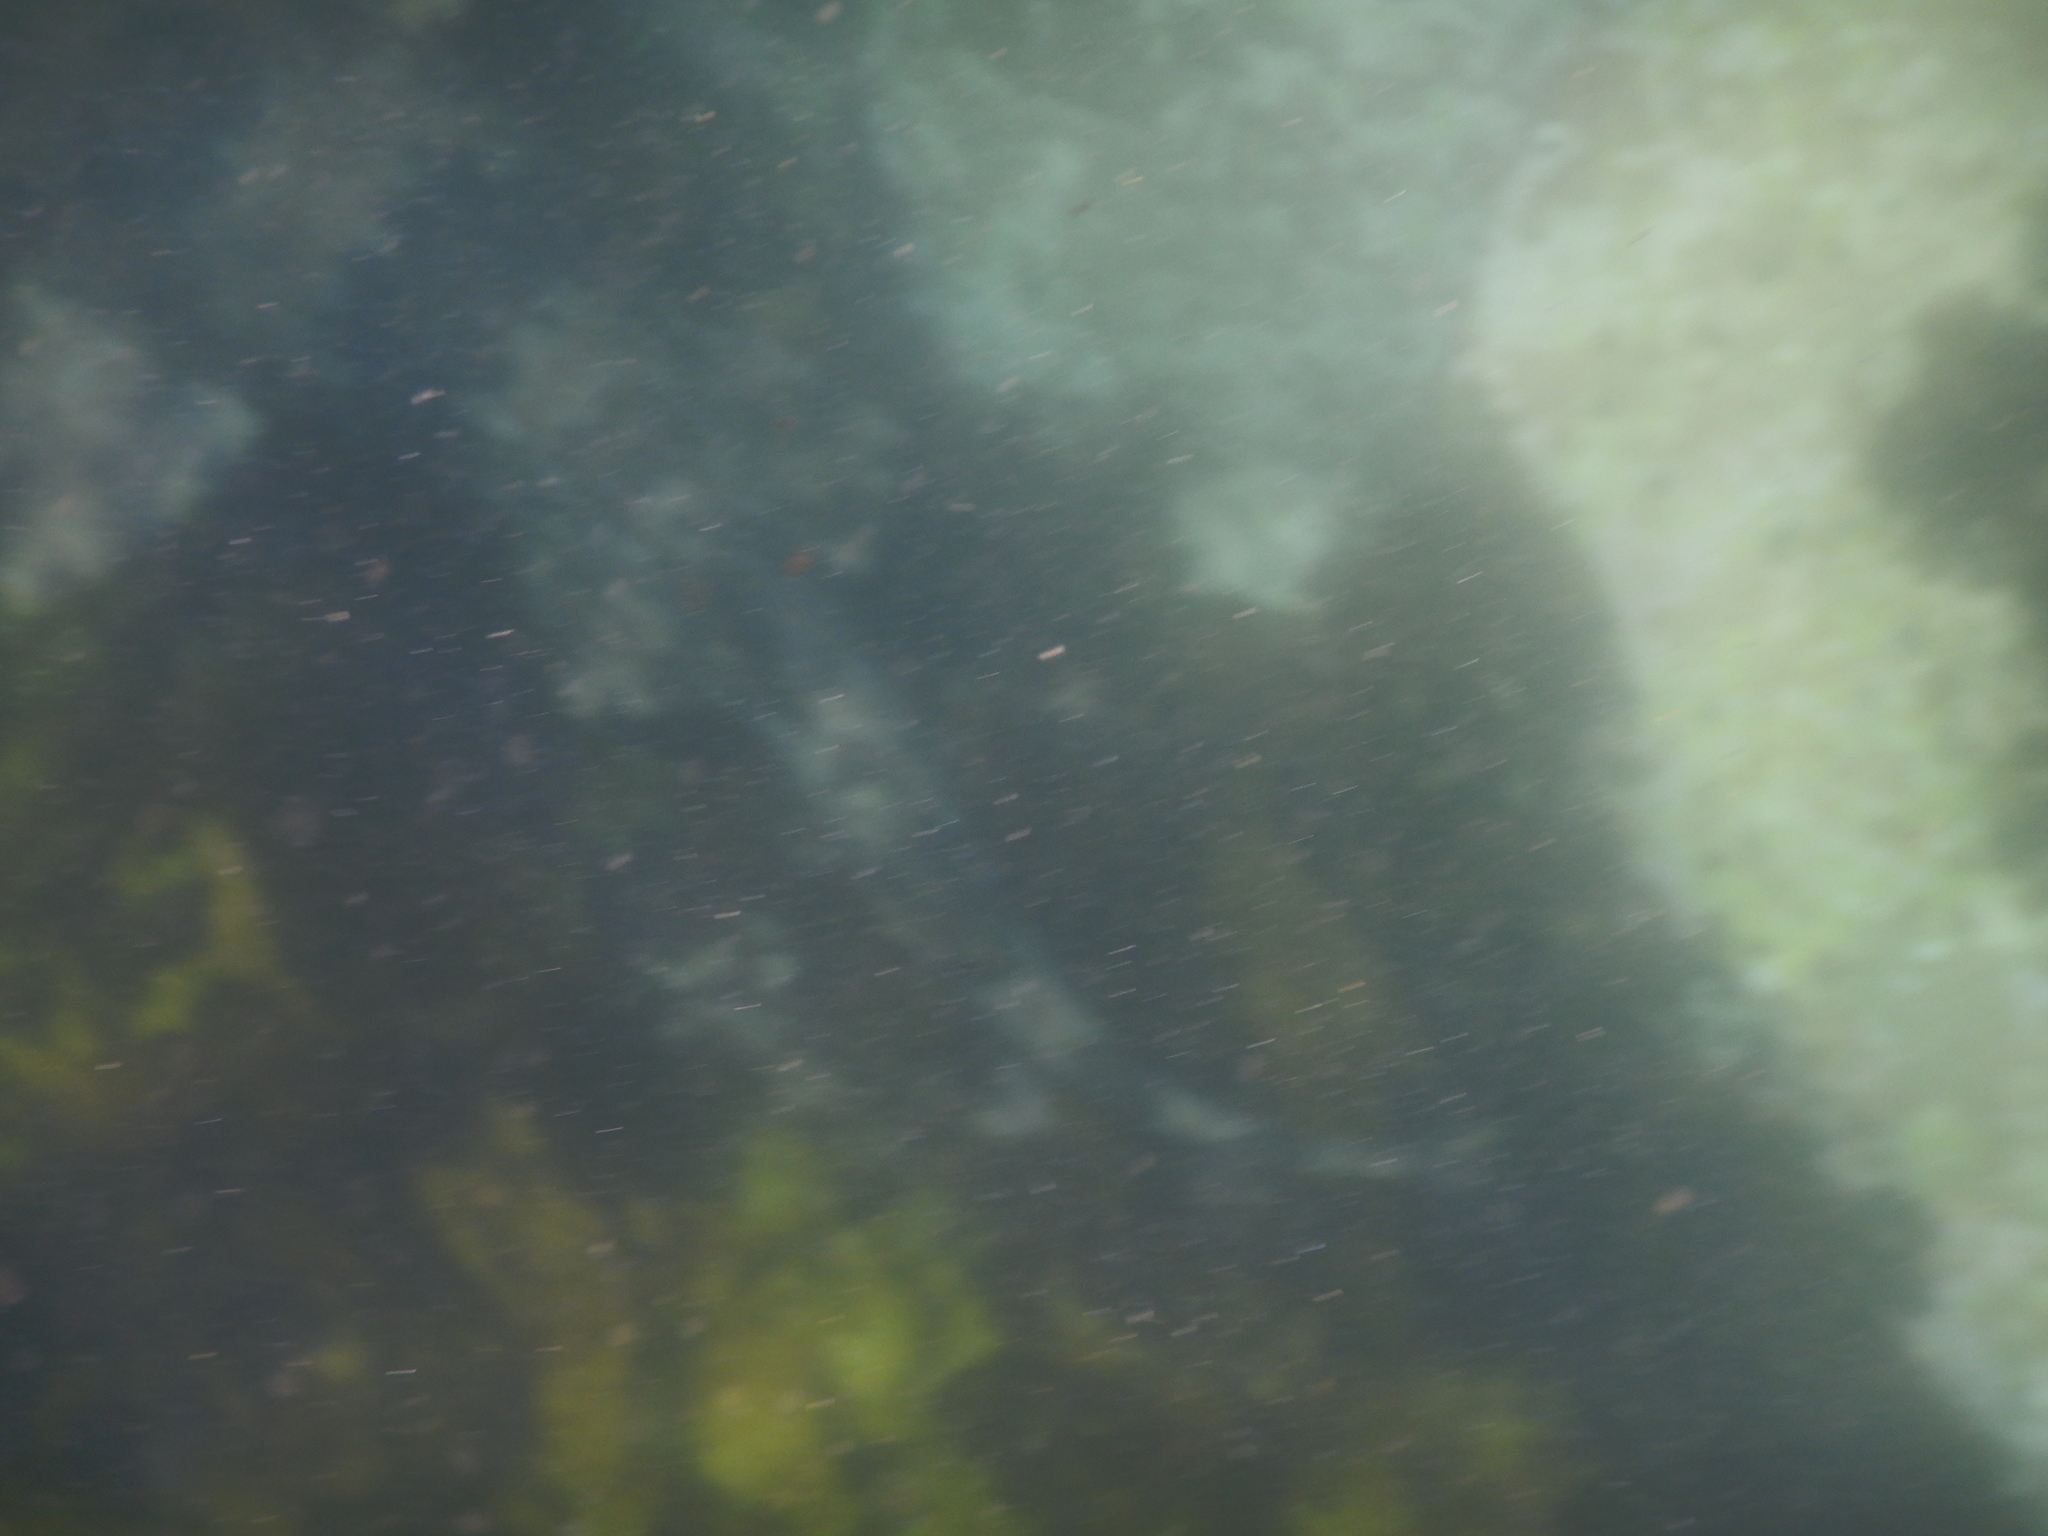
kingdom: Animalia
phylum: Chordata
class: Elasmobranchii
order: Orectolobiformes
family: Orectolobidae
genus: Orectolobus
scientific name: Orectolobus halei
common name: Banded wobbegong
